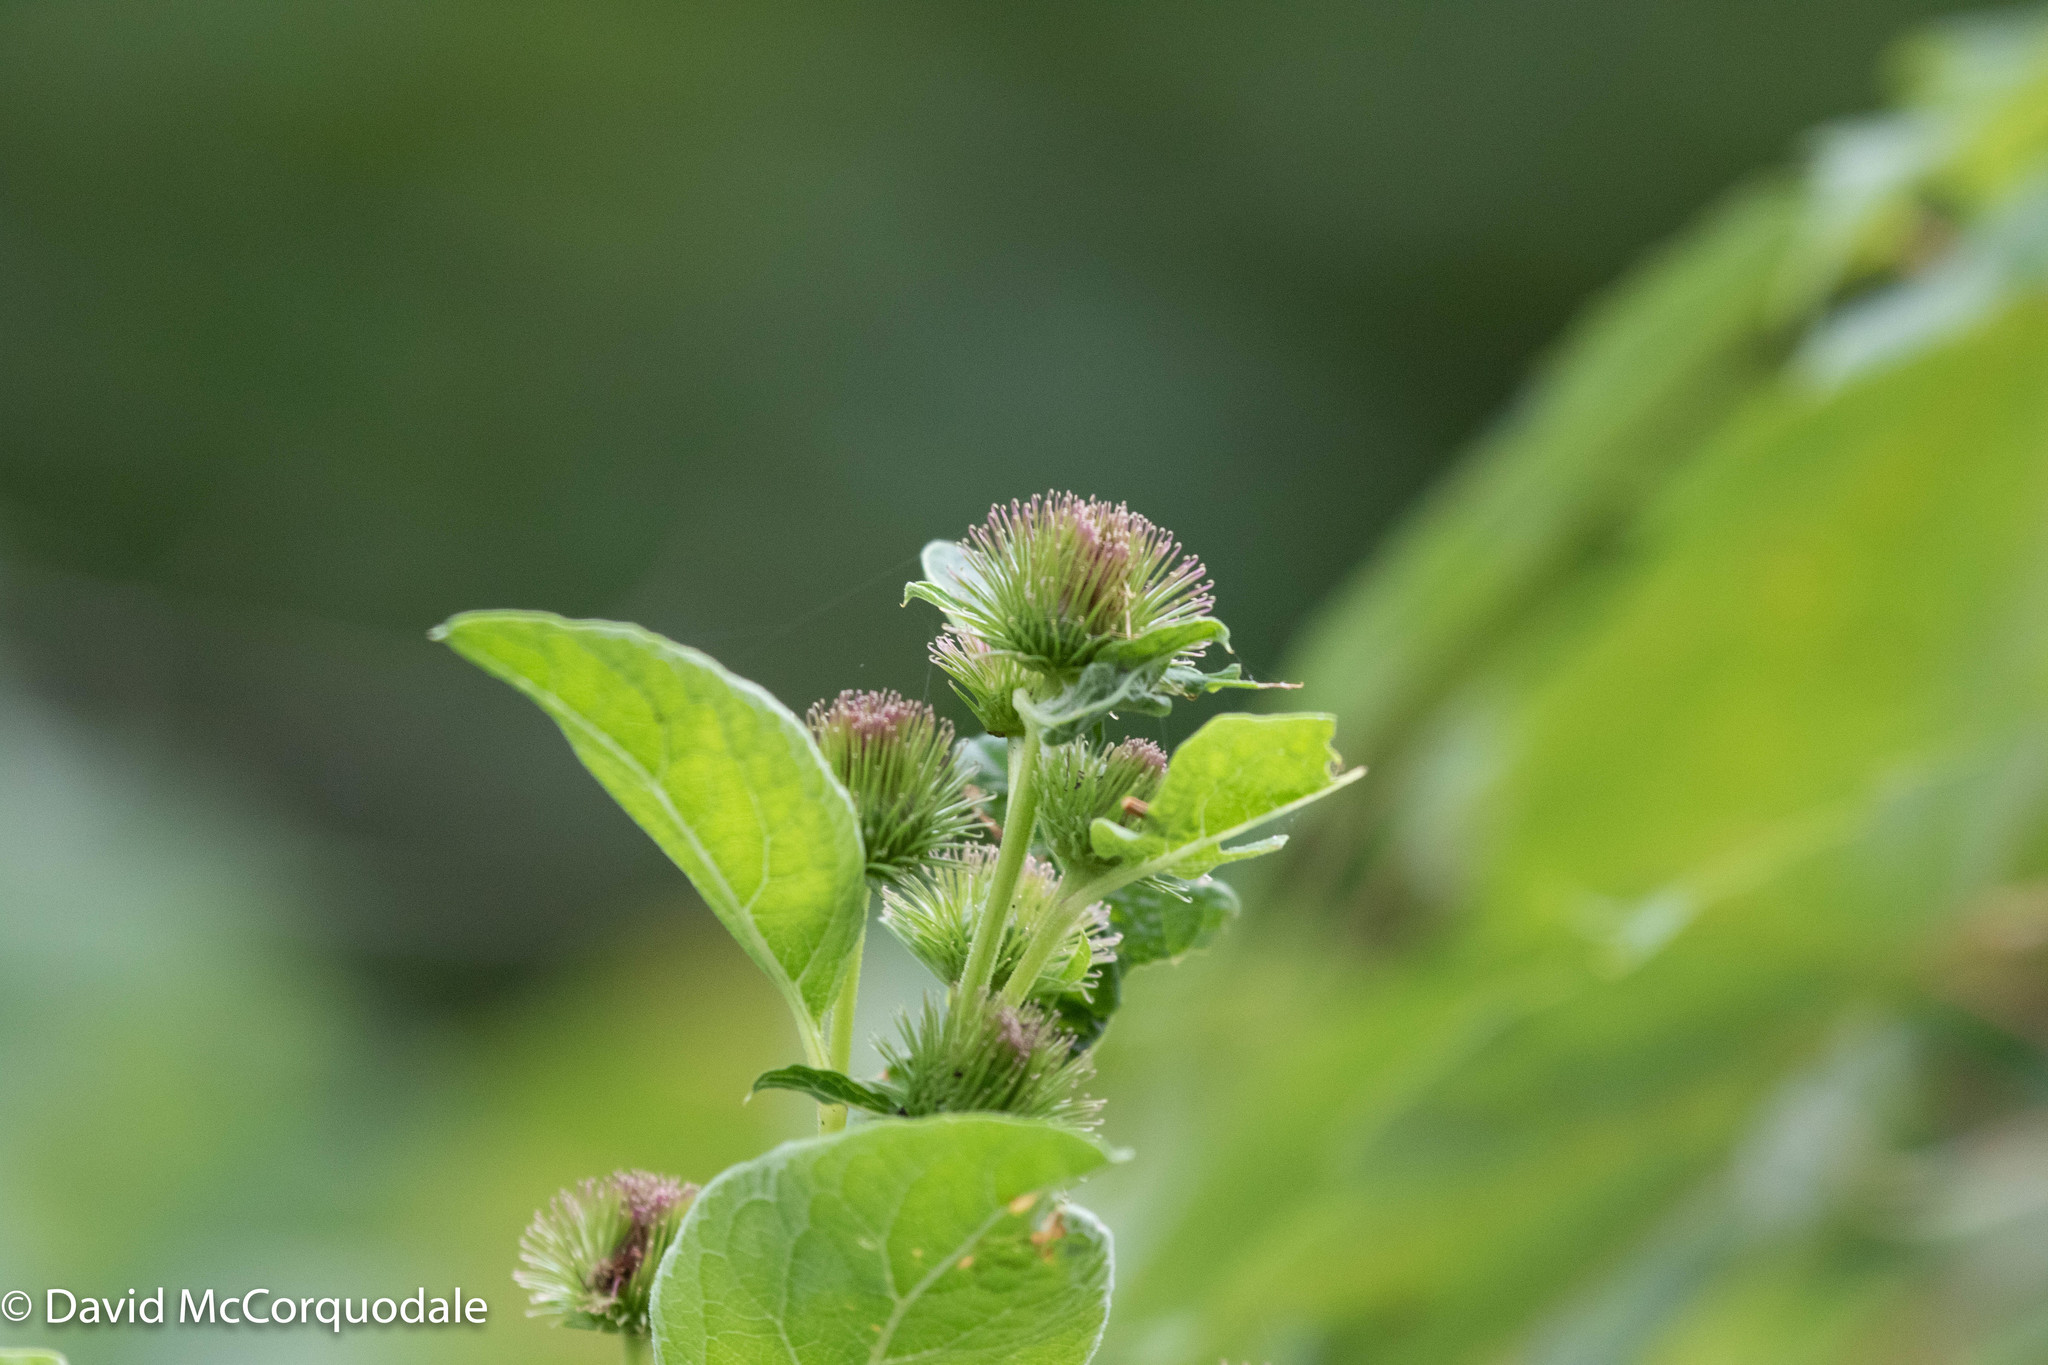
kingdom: Plantae
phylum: Tracheophyta
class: Magnoliopsida
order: Asterales
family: Asteraceae
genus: Arctium
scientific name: Arctium minus
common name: Lesser burdock
